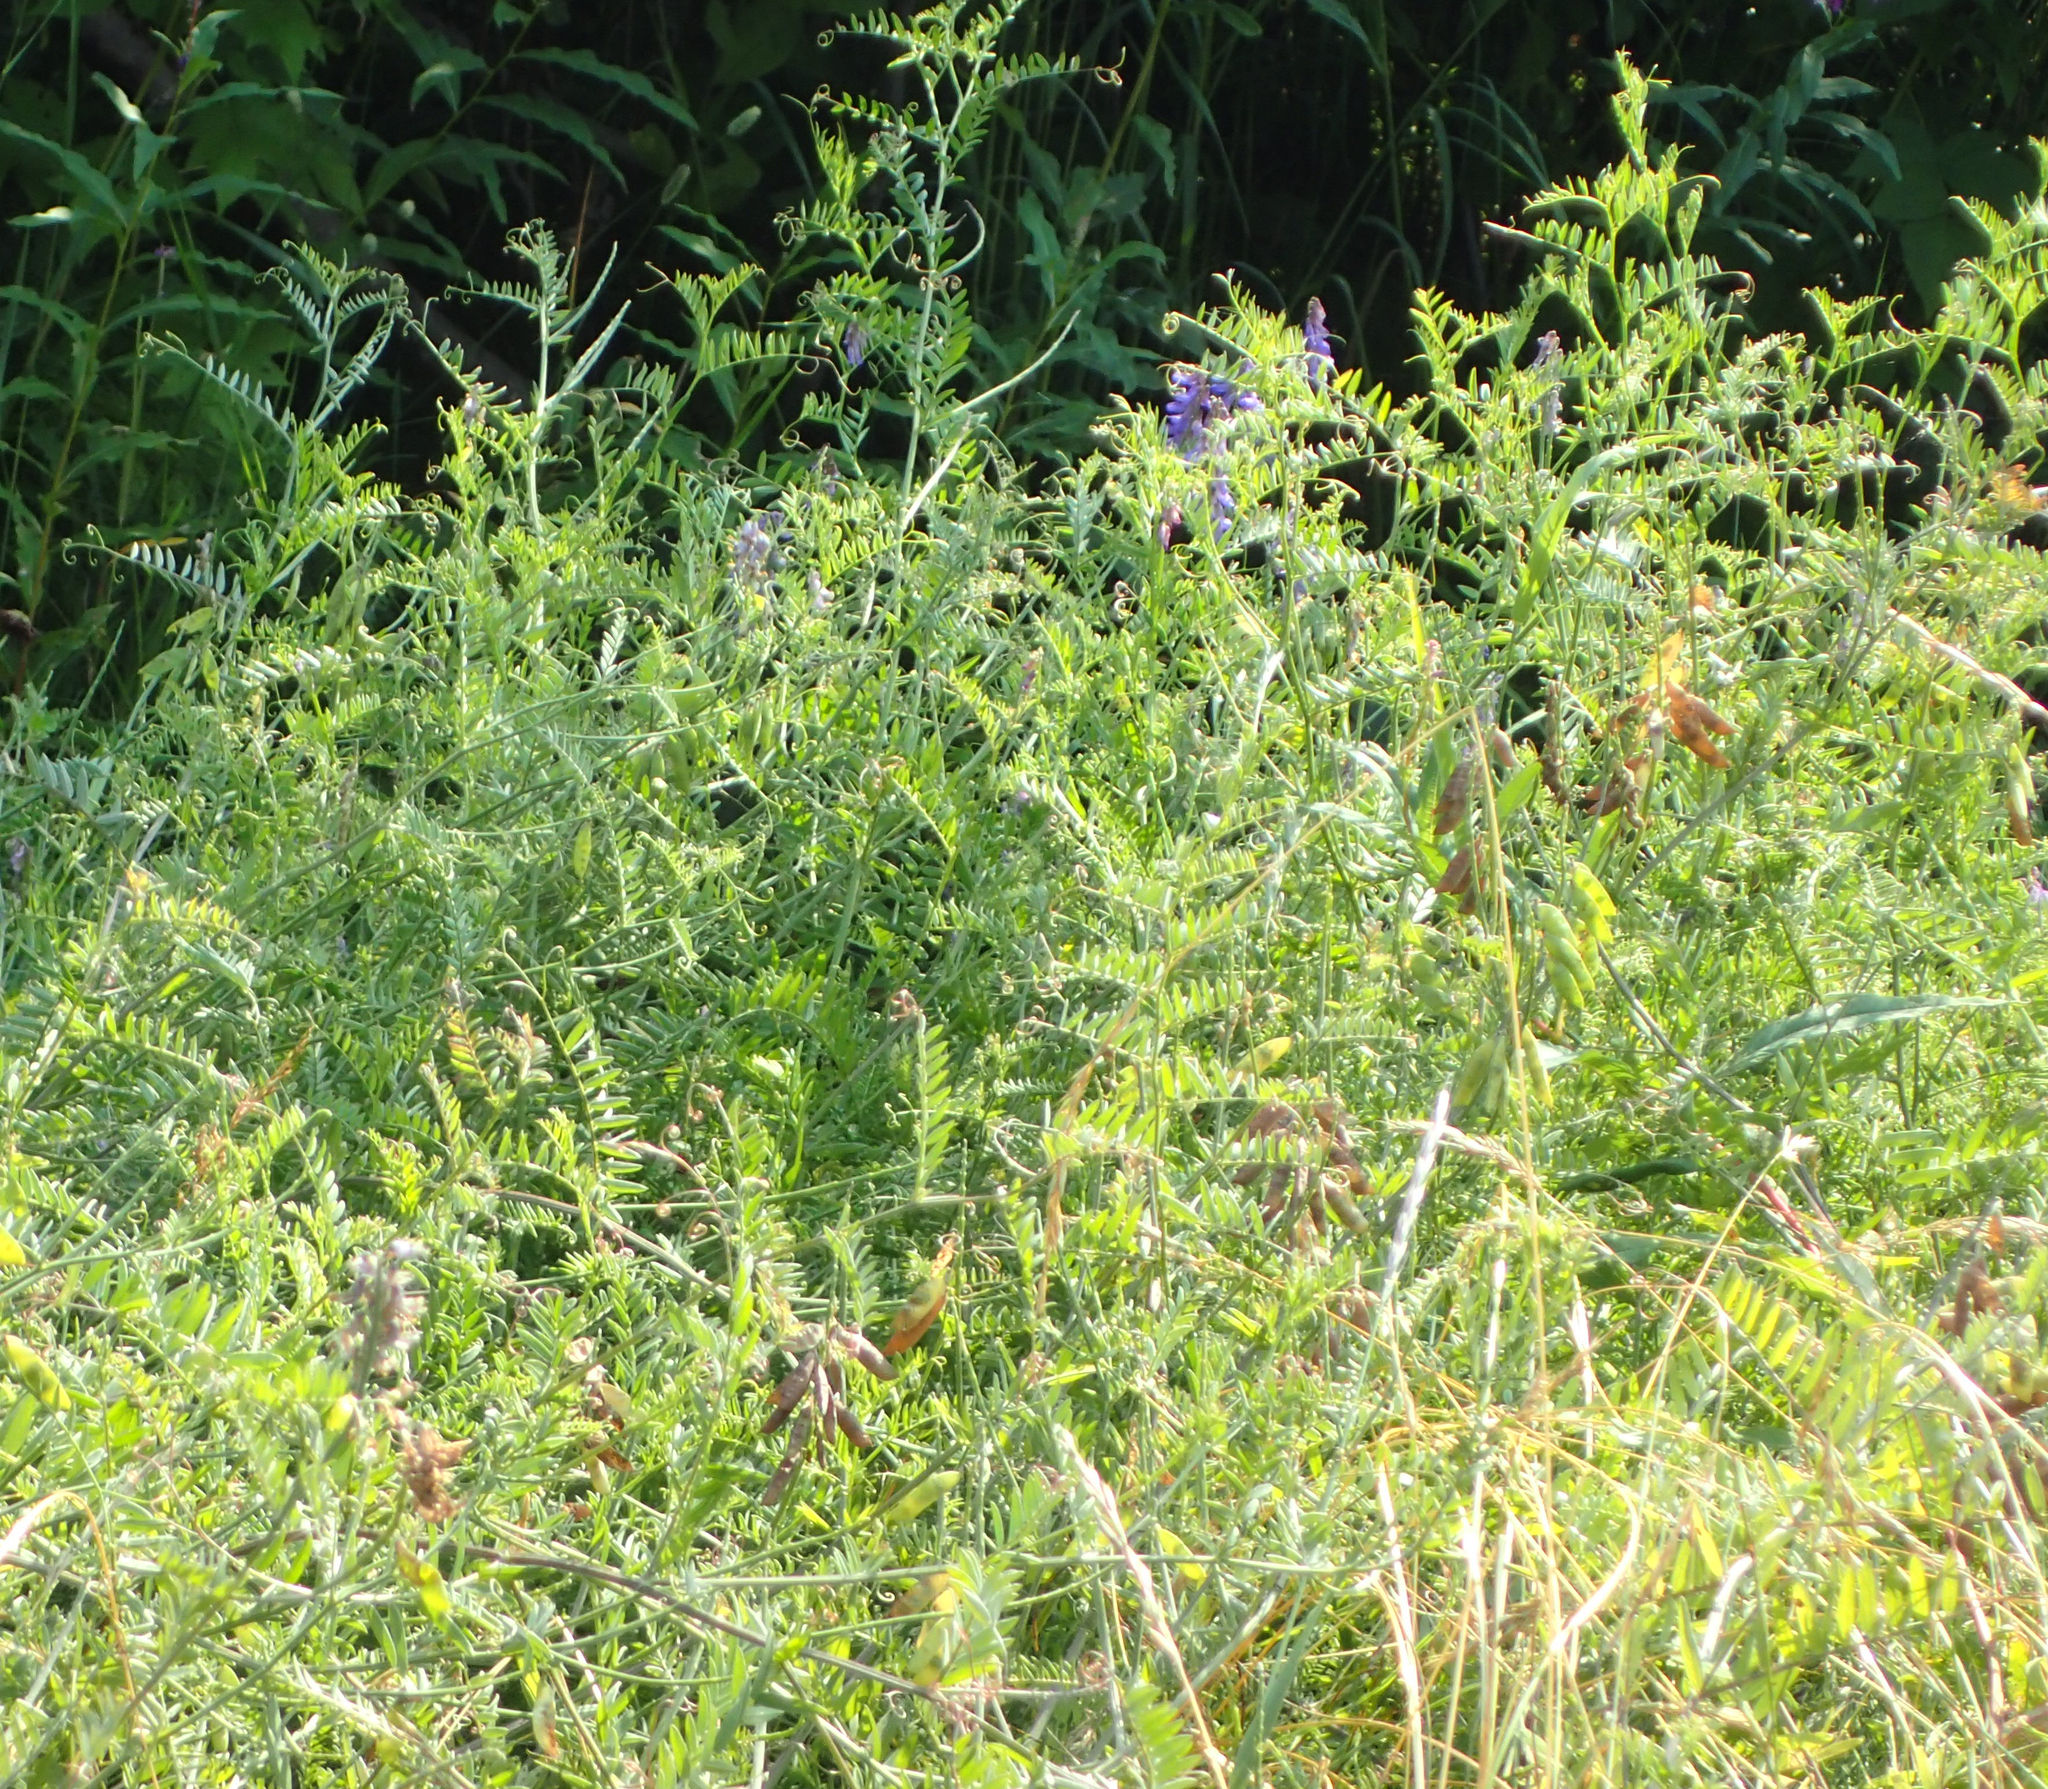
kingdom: Plantae
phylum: Tracheophyta
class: Magnoliopsida
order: Fabales
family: Fabaceae
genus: Vicia
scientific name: Vicia cracca
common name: Bird vetch
